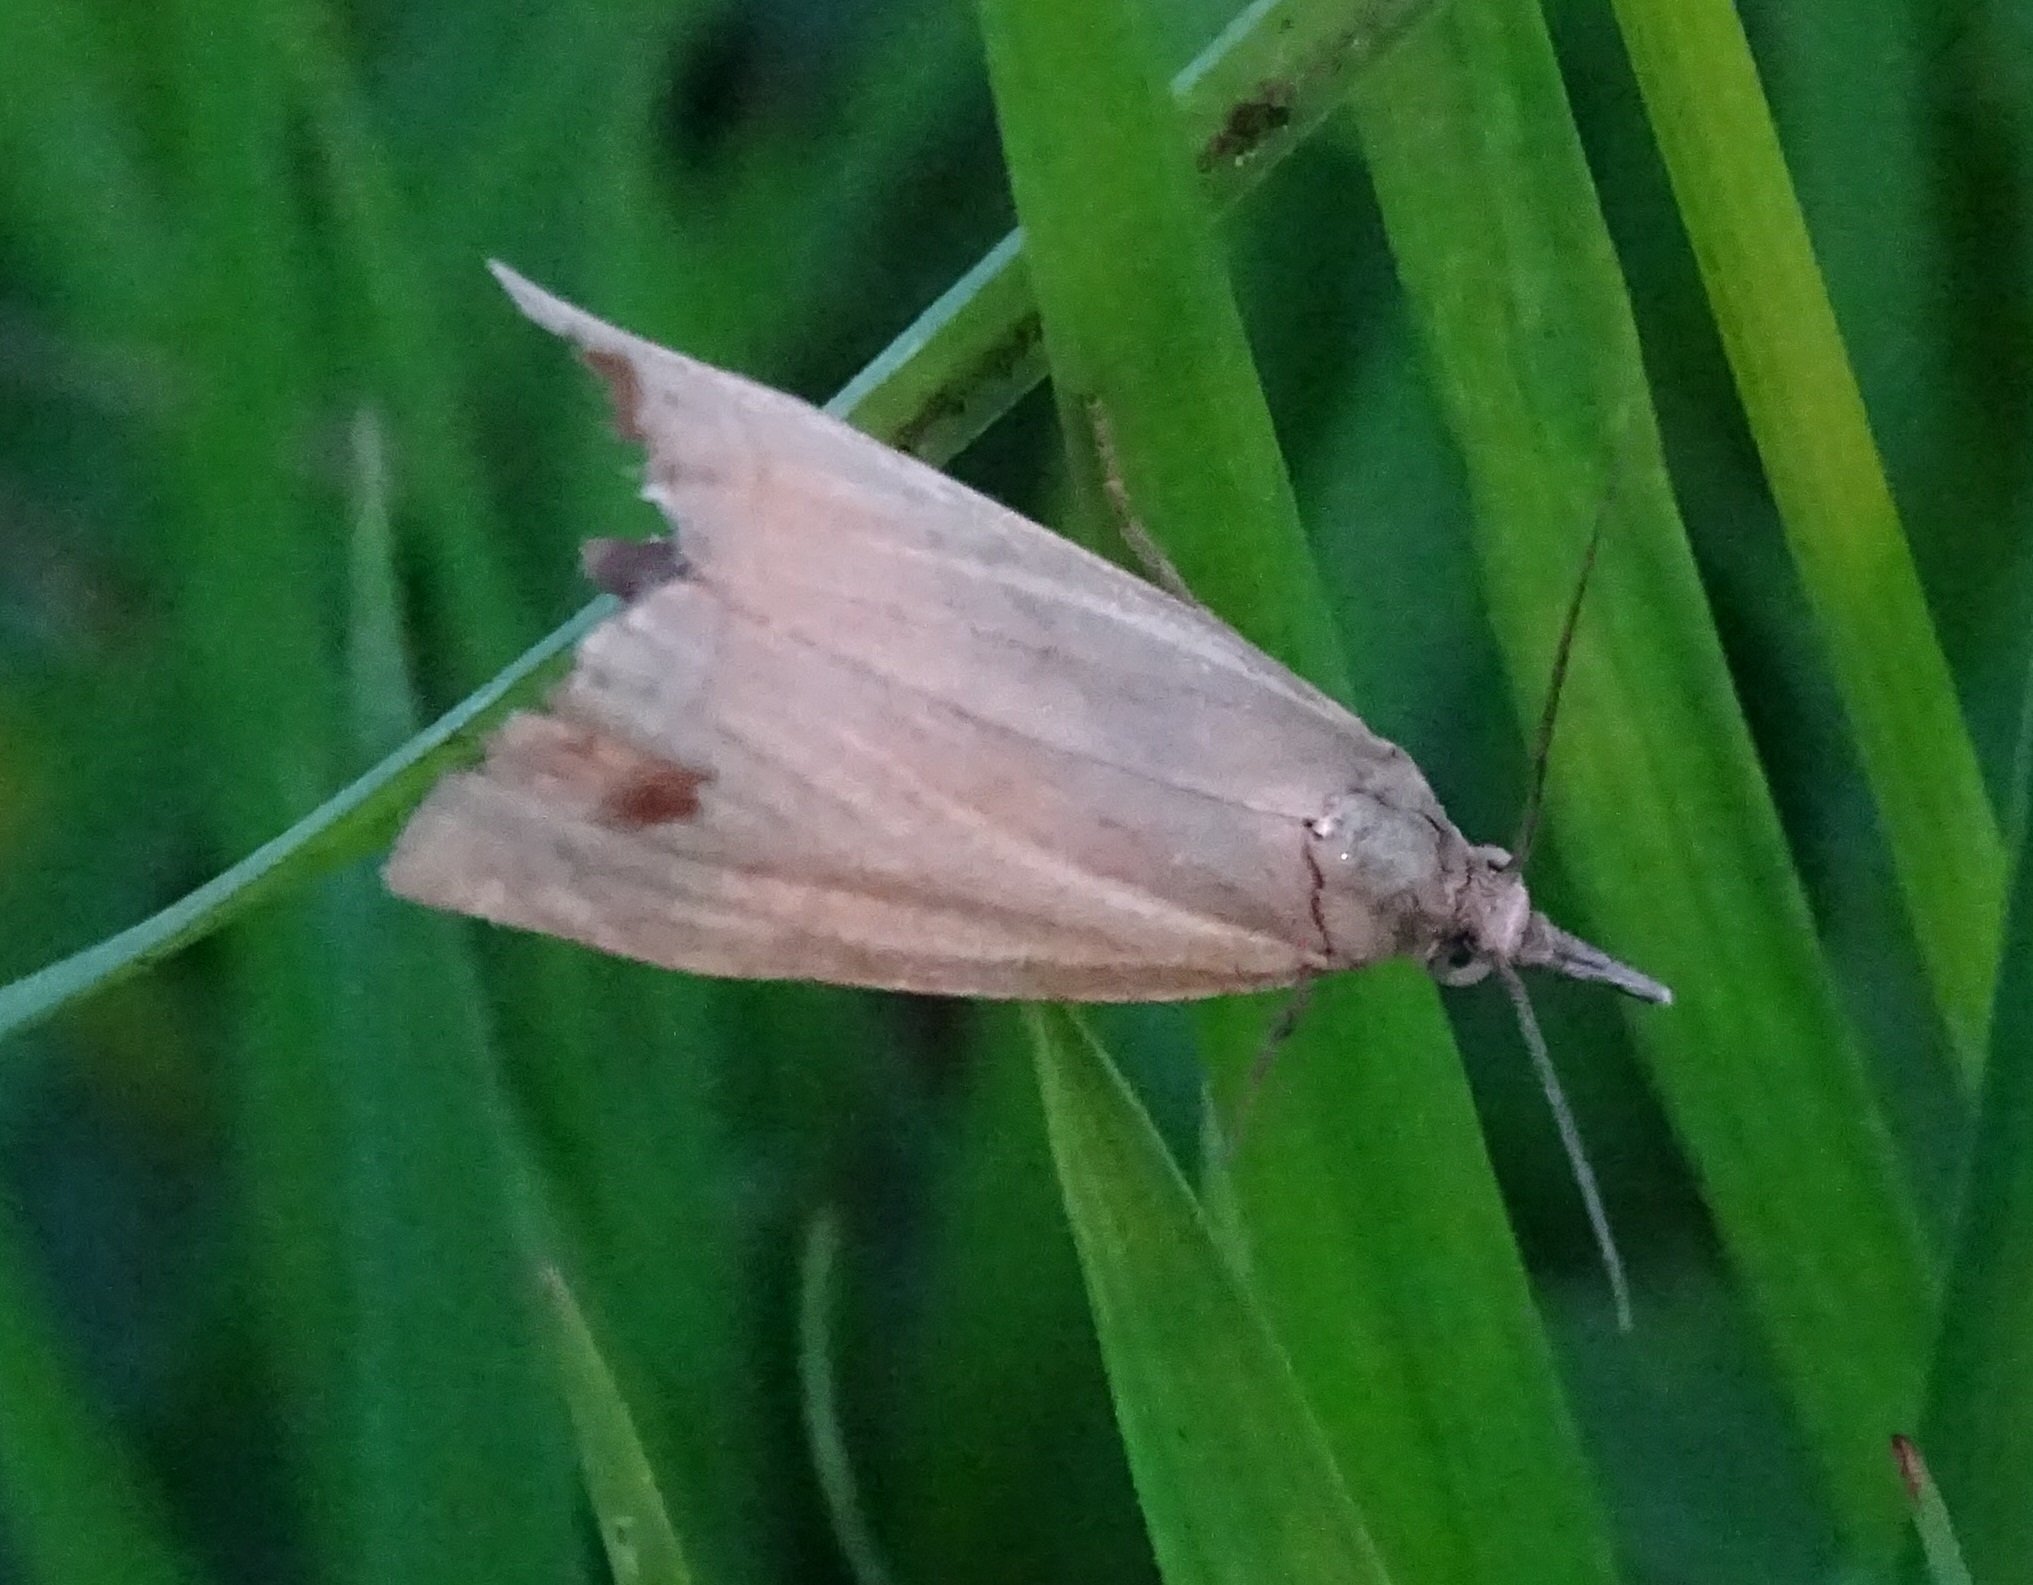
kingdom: Animalia
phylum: Arthropoda
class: Insecta
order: Lepidoptera
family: Crambidae
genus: Chrysoteuchia
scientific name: Chrysoteuchia culmella
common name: Garden grass-veneer
